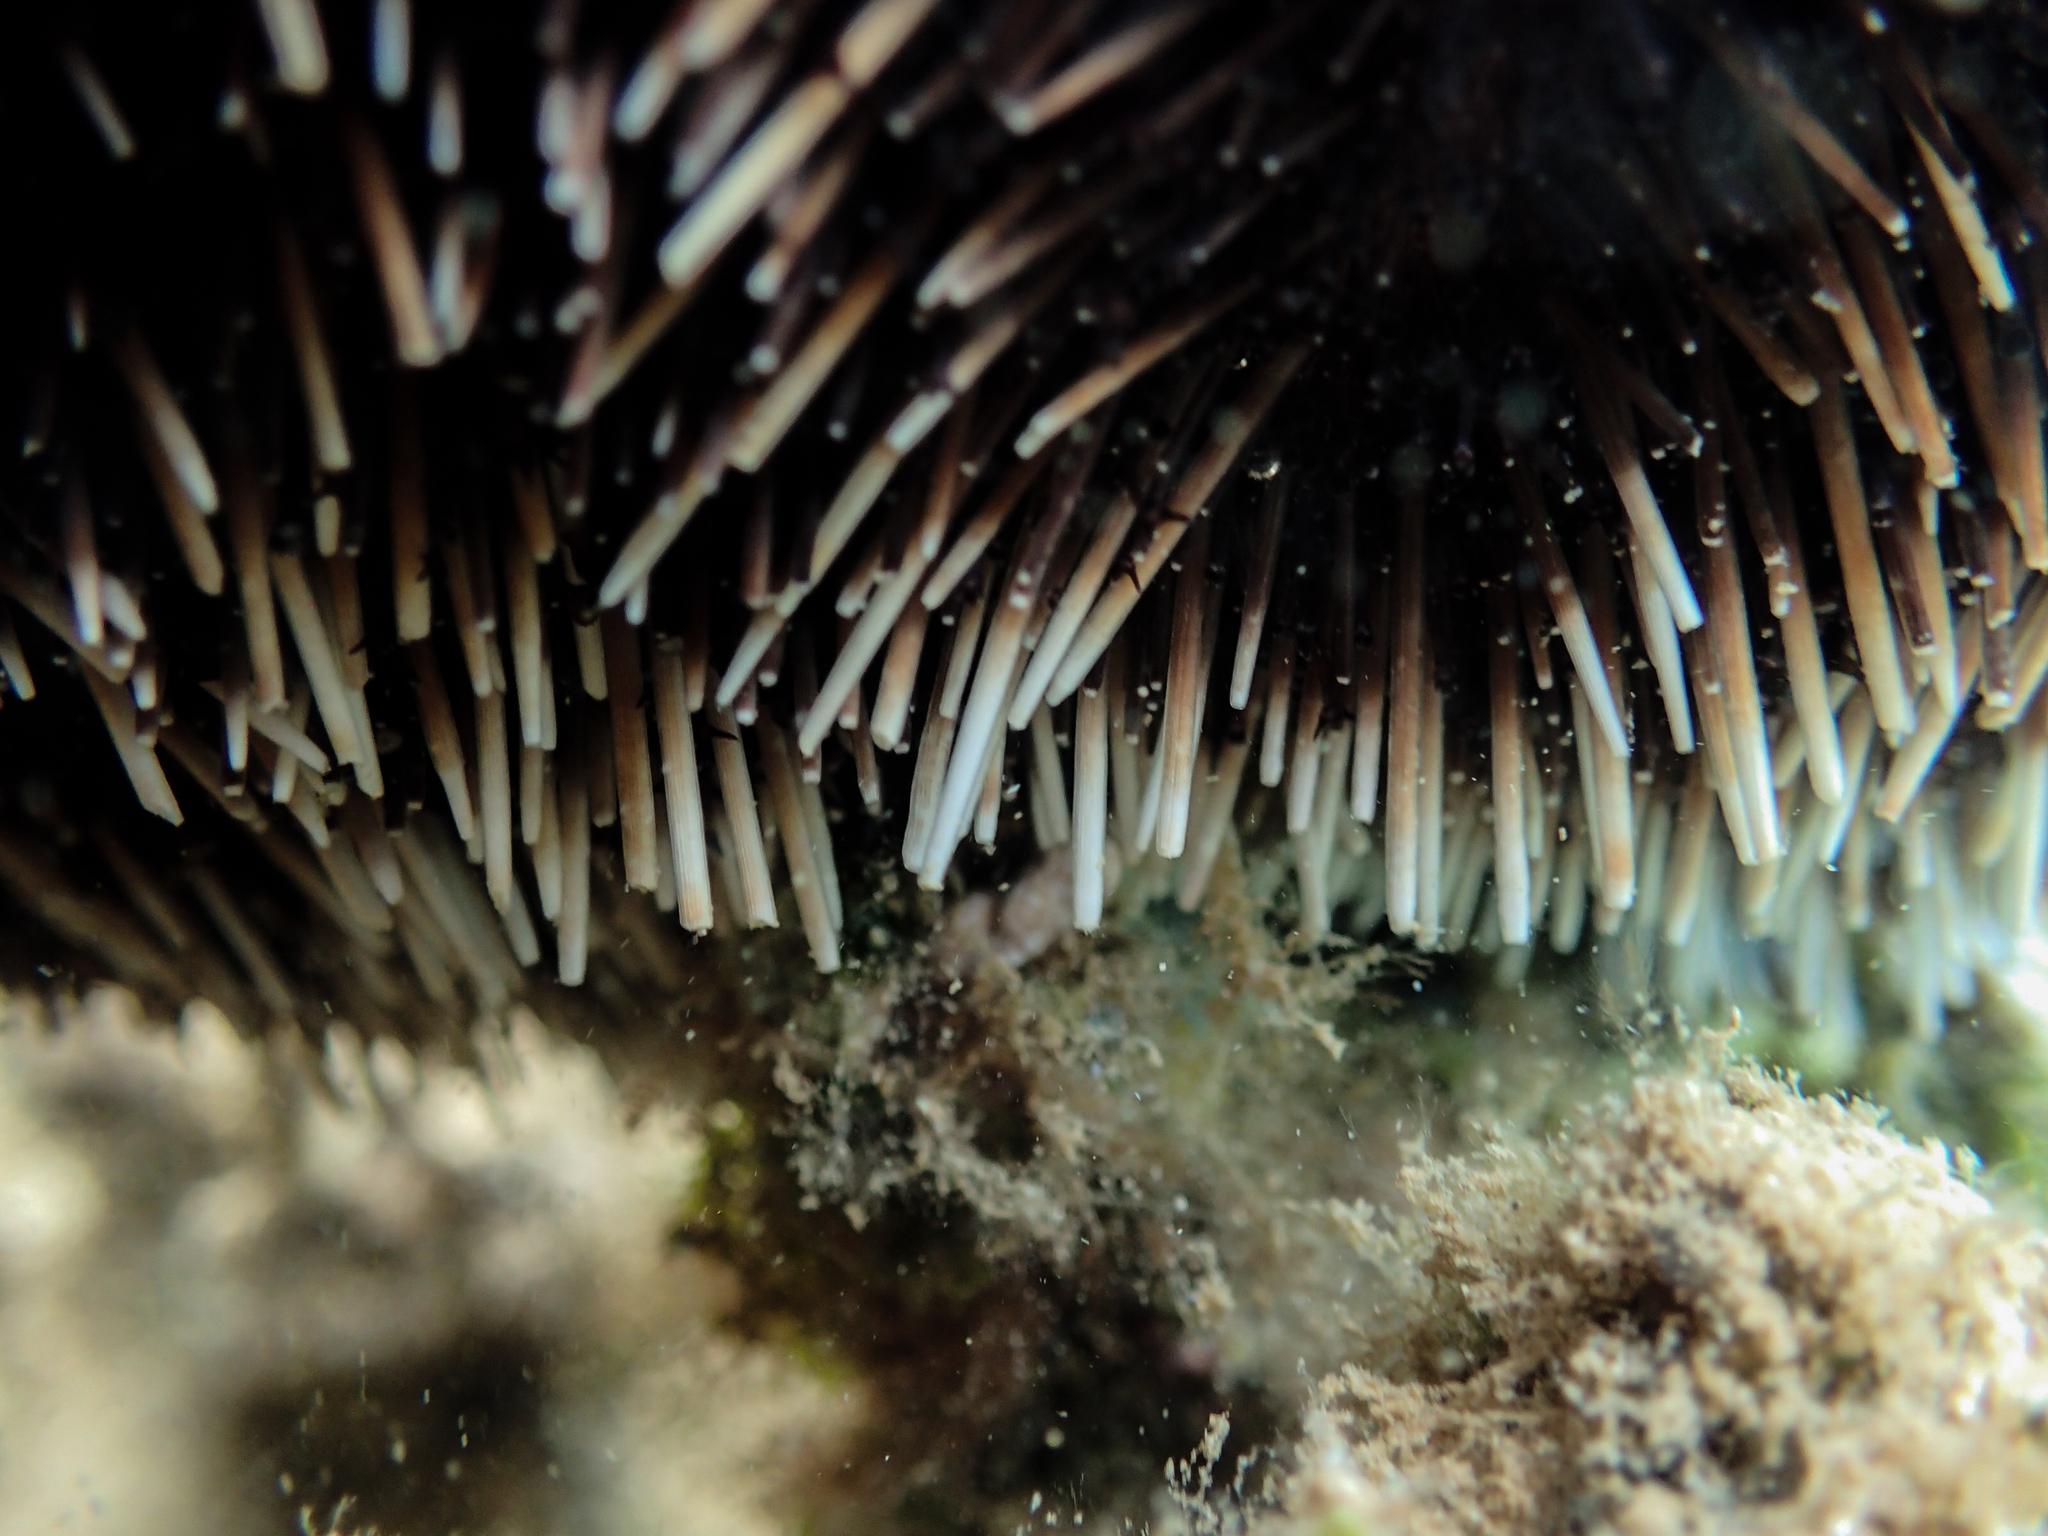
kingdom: Animalia
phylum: Echinodermata
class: Echinoidea
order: Camarodonta
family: Toxopneustidae
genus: Tripneustes
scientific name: Tripneustes gratilla
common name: Bischofsmützenseeigel
